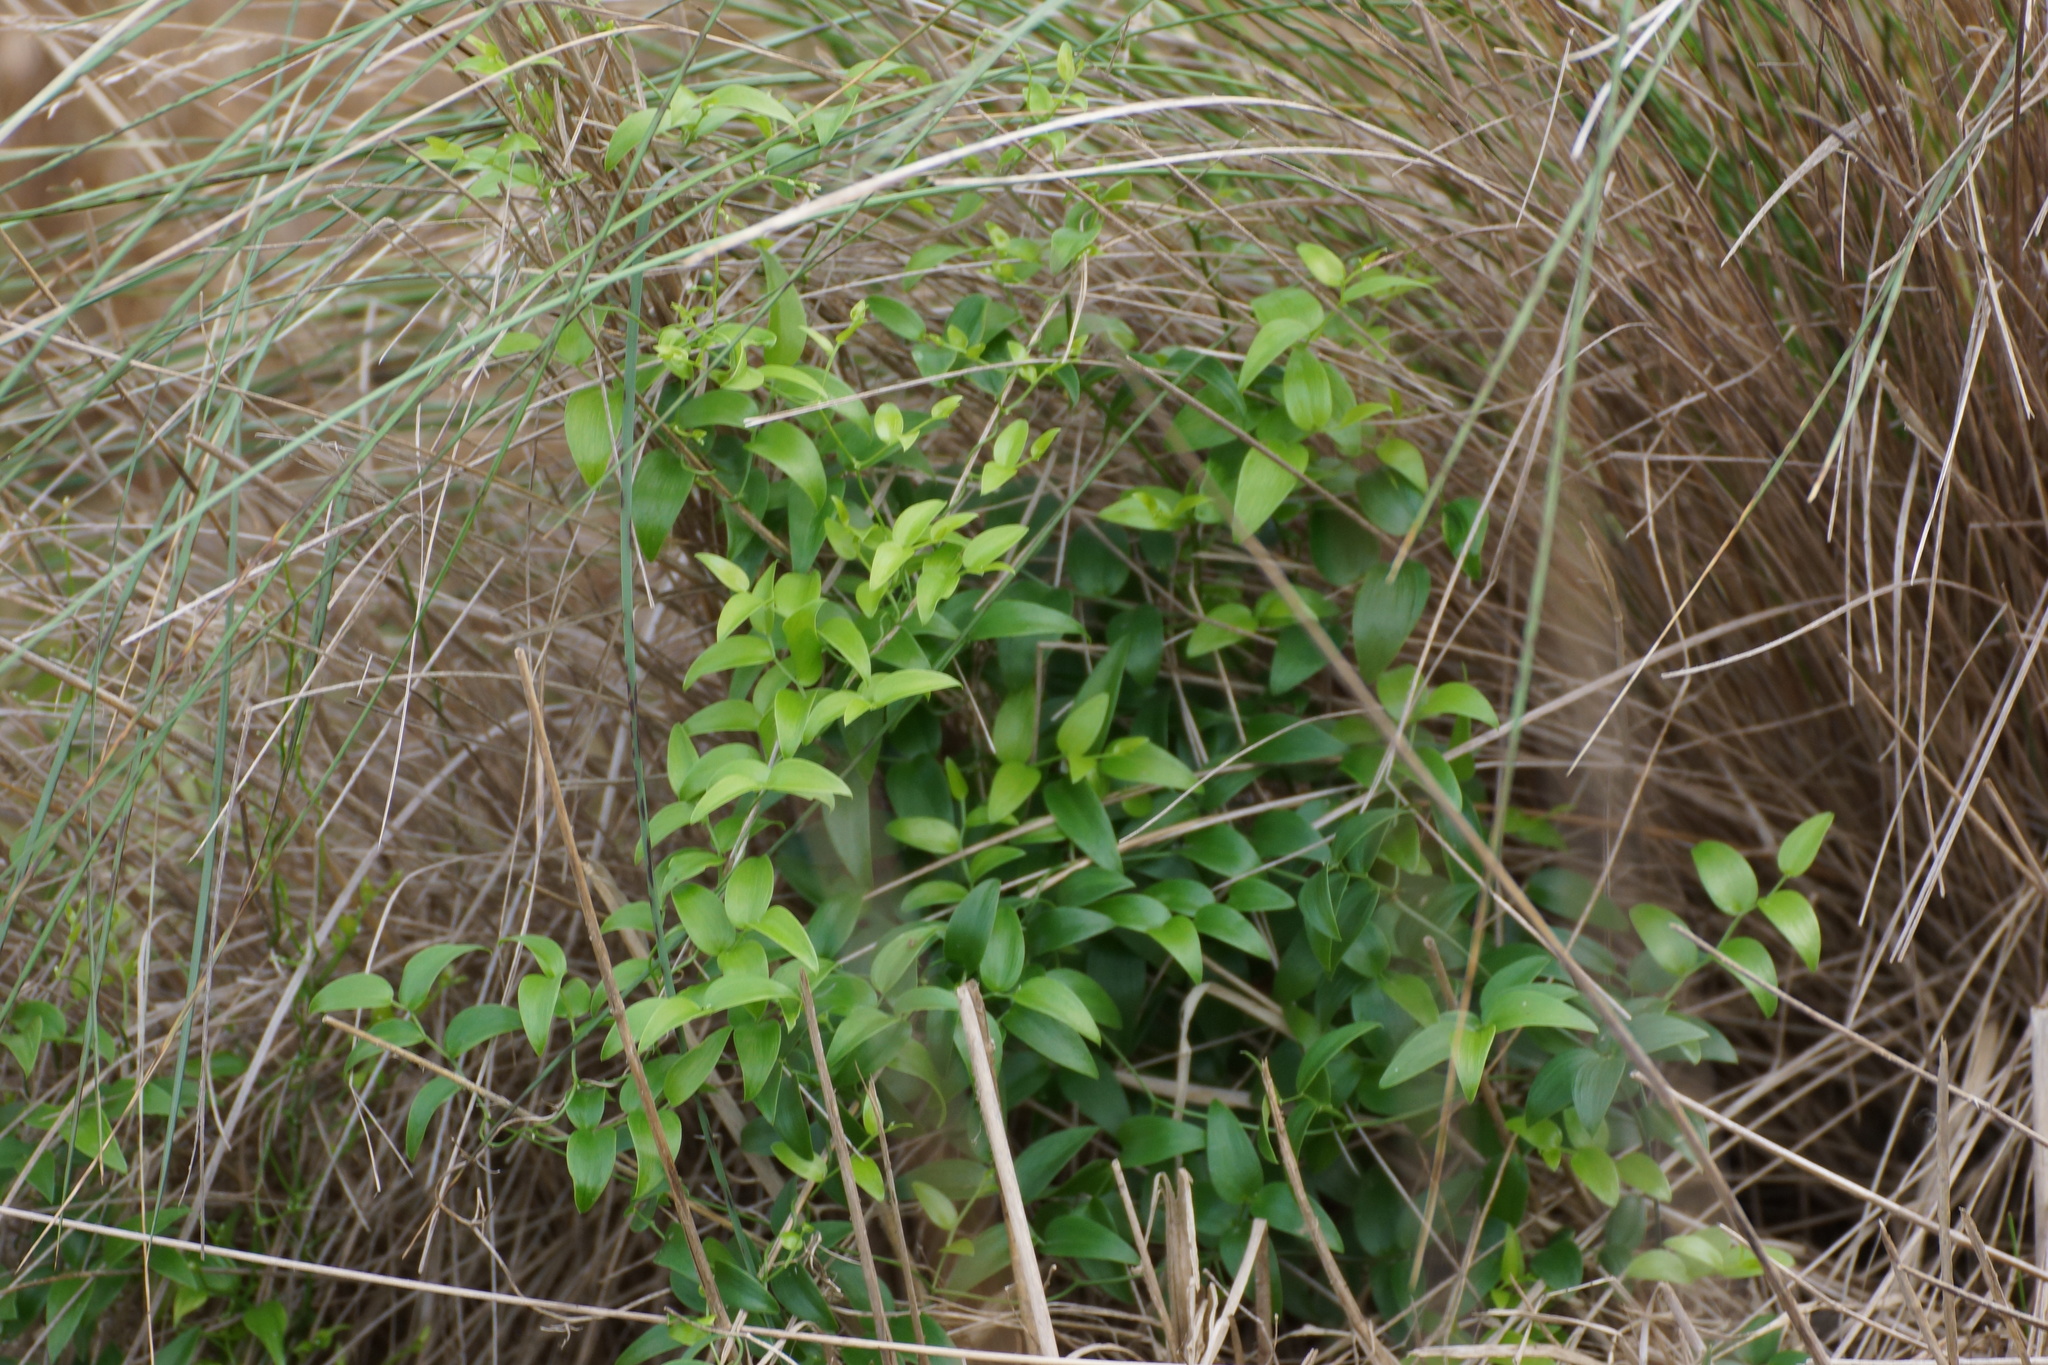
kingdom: Plantae
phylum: Tracheophyta
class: Liliopsida
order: Asparagales
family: Asparagaceae
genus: Asparagus
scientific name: Asparagus asparagoides
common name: African asparagus fern
